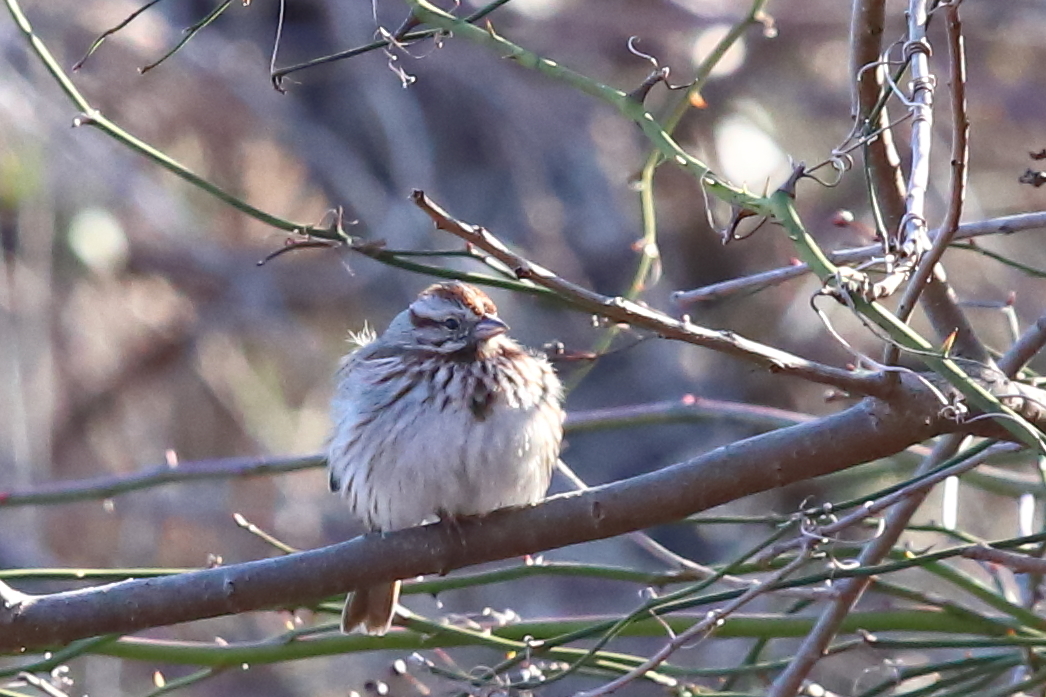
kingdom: Animalia
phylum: Chordata
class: Aves
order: Passeriformes
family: Passerellidae
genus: Melospiza
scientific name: Melospiza melodia
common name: Song sparrow
